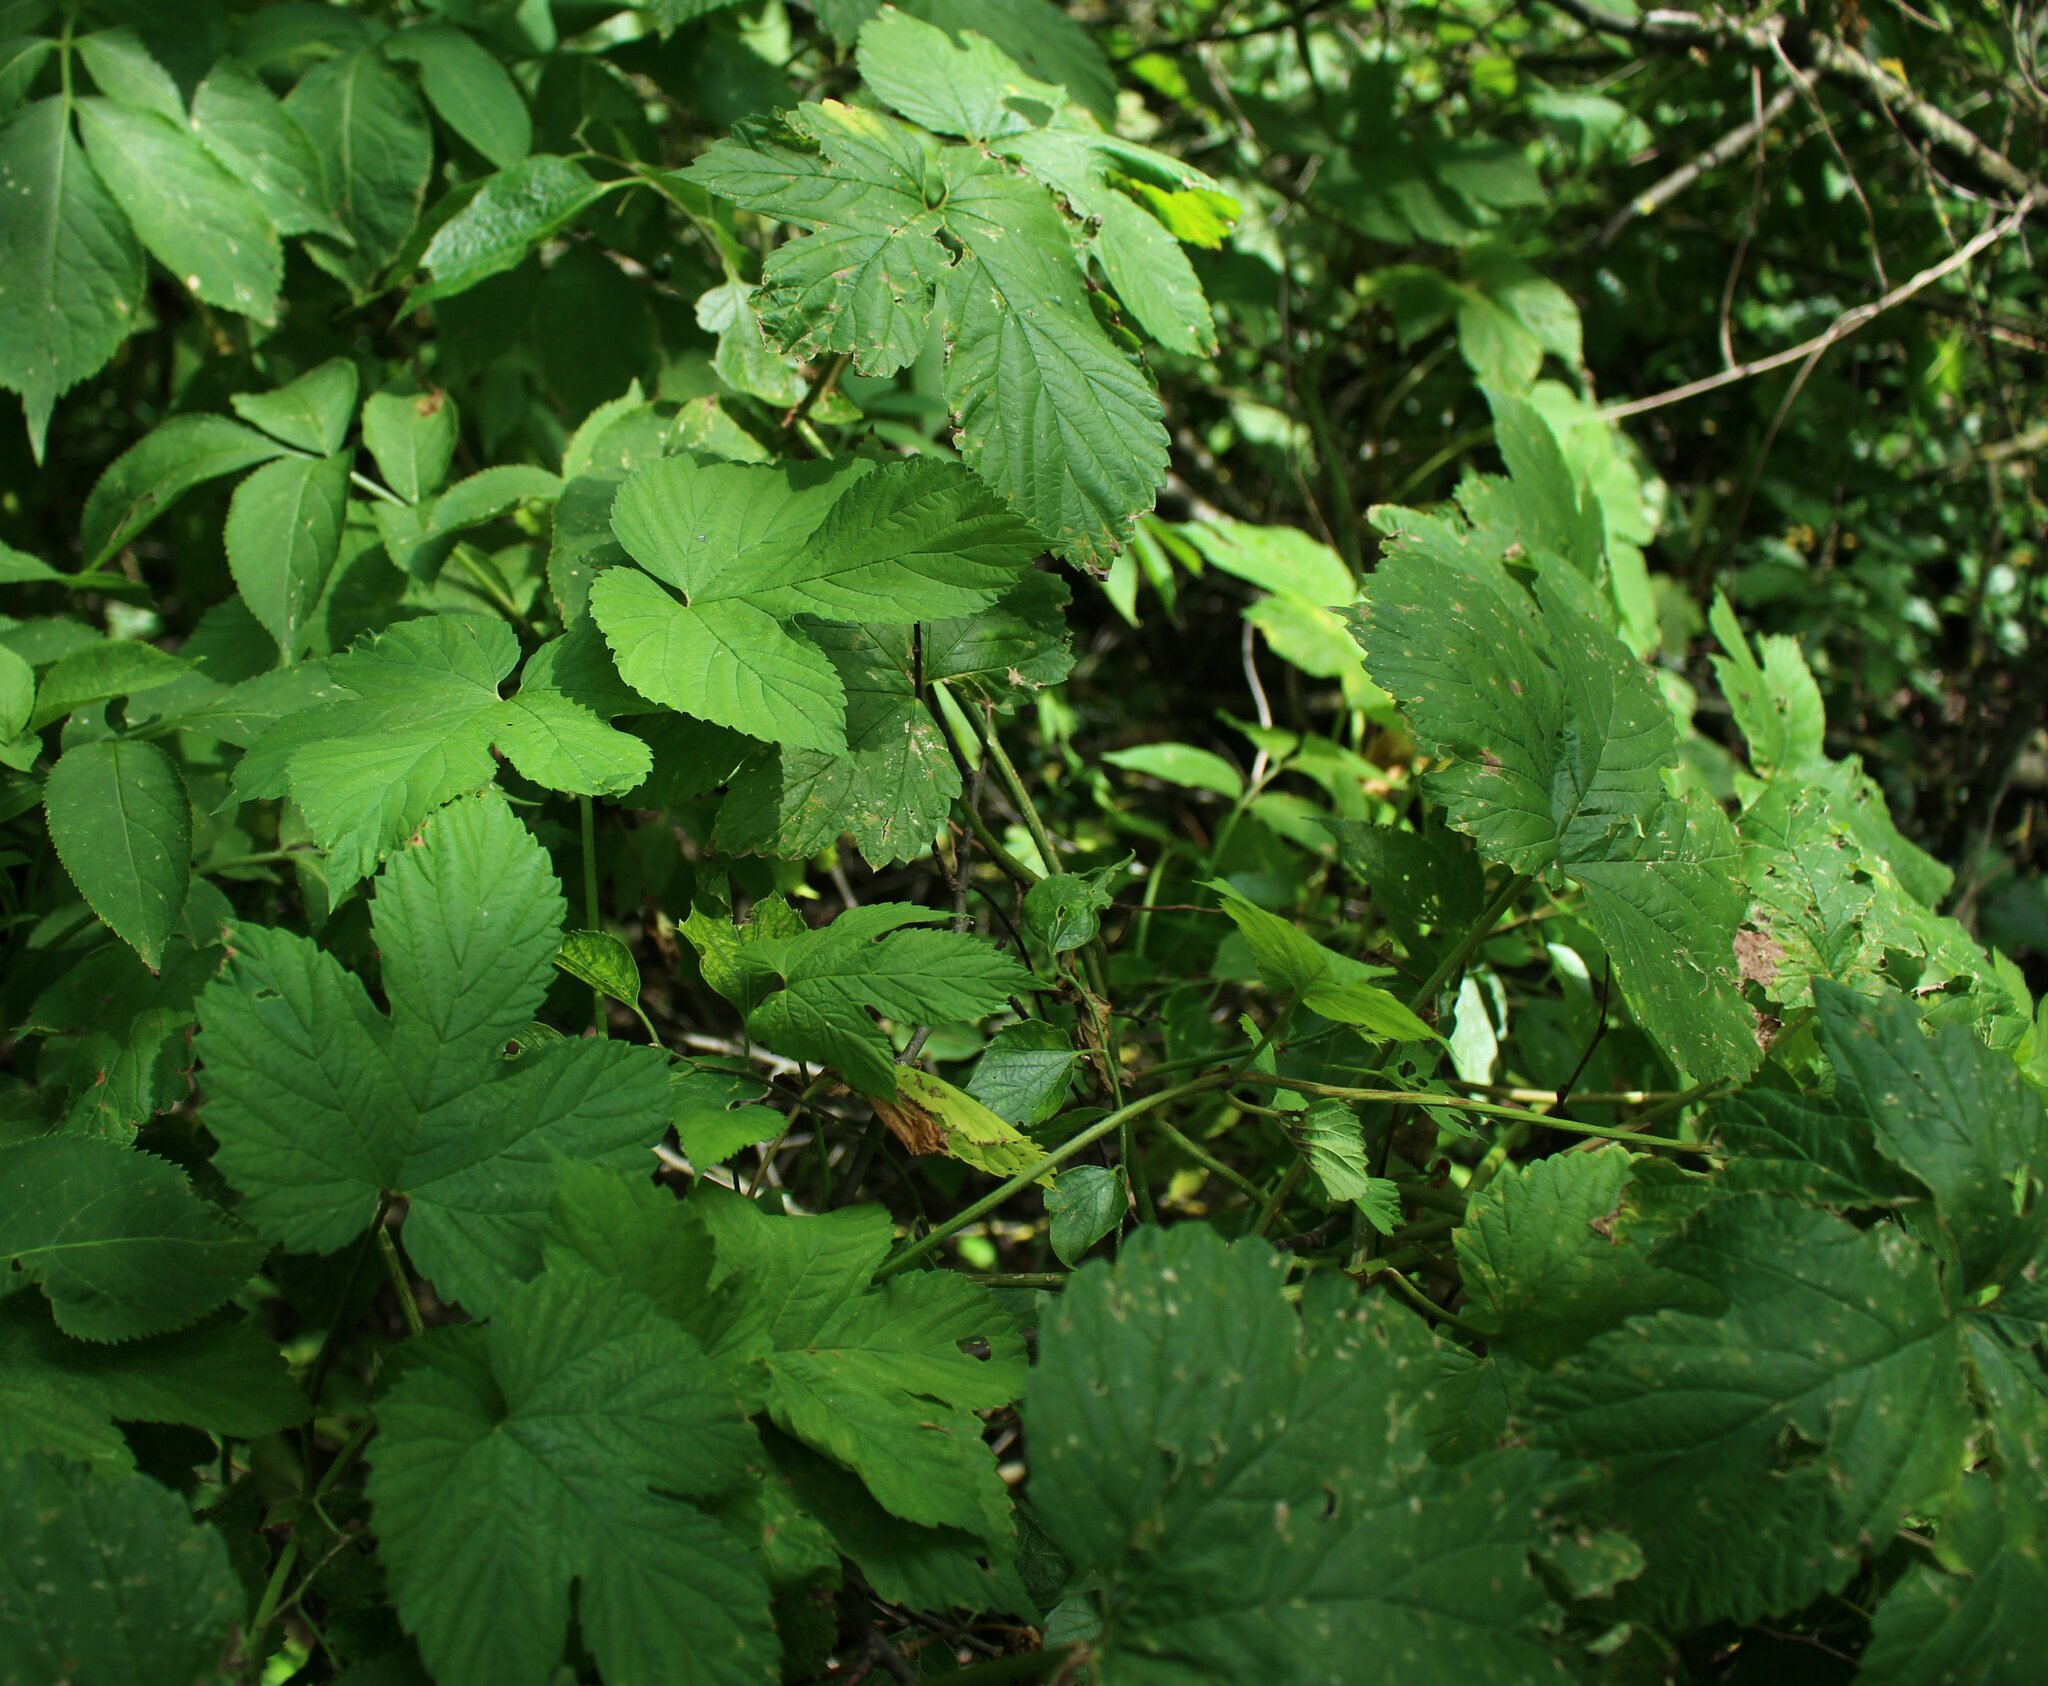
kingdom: Plantae
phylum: Tracheophyta
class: Magnoliopsida
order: Rosales
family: Cannabaceae
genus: Humulus
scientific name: Humulus lupulus
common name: Hop
